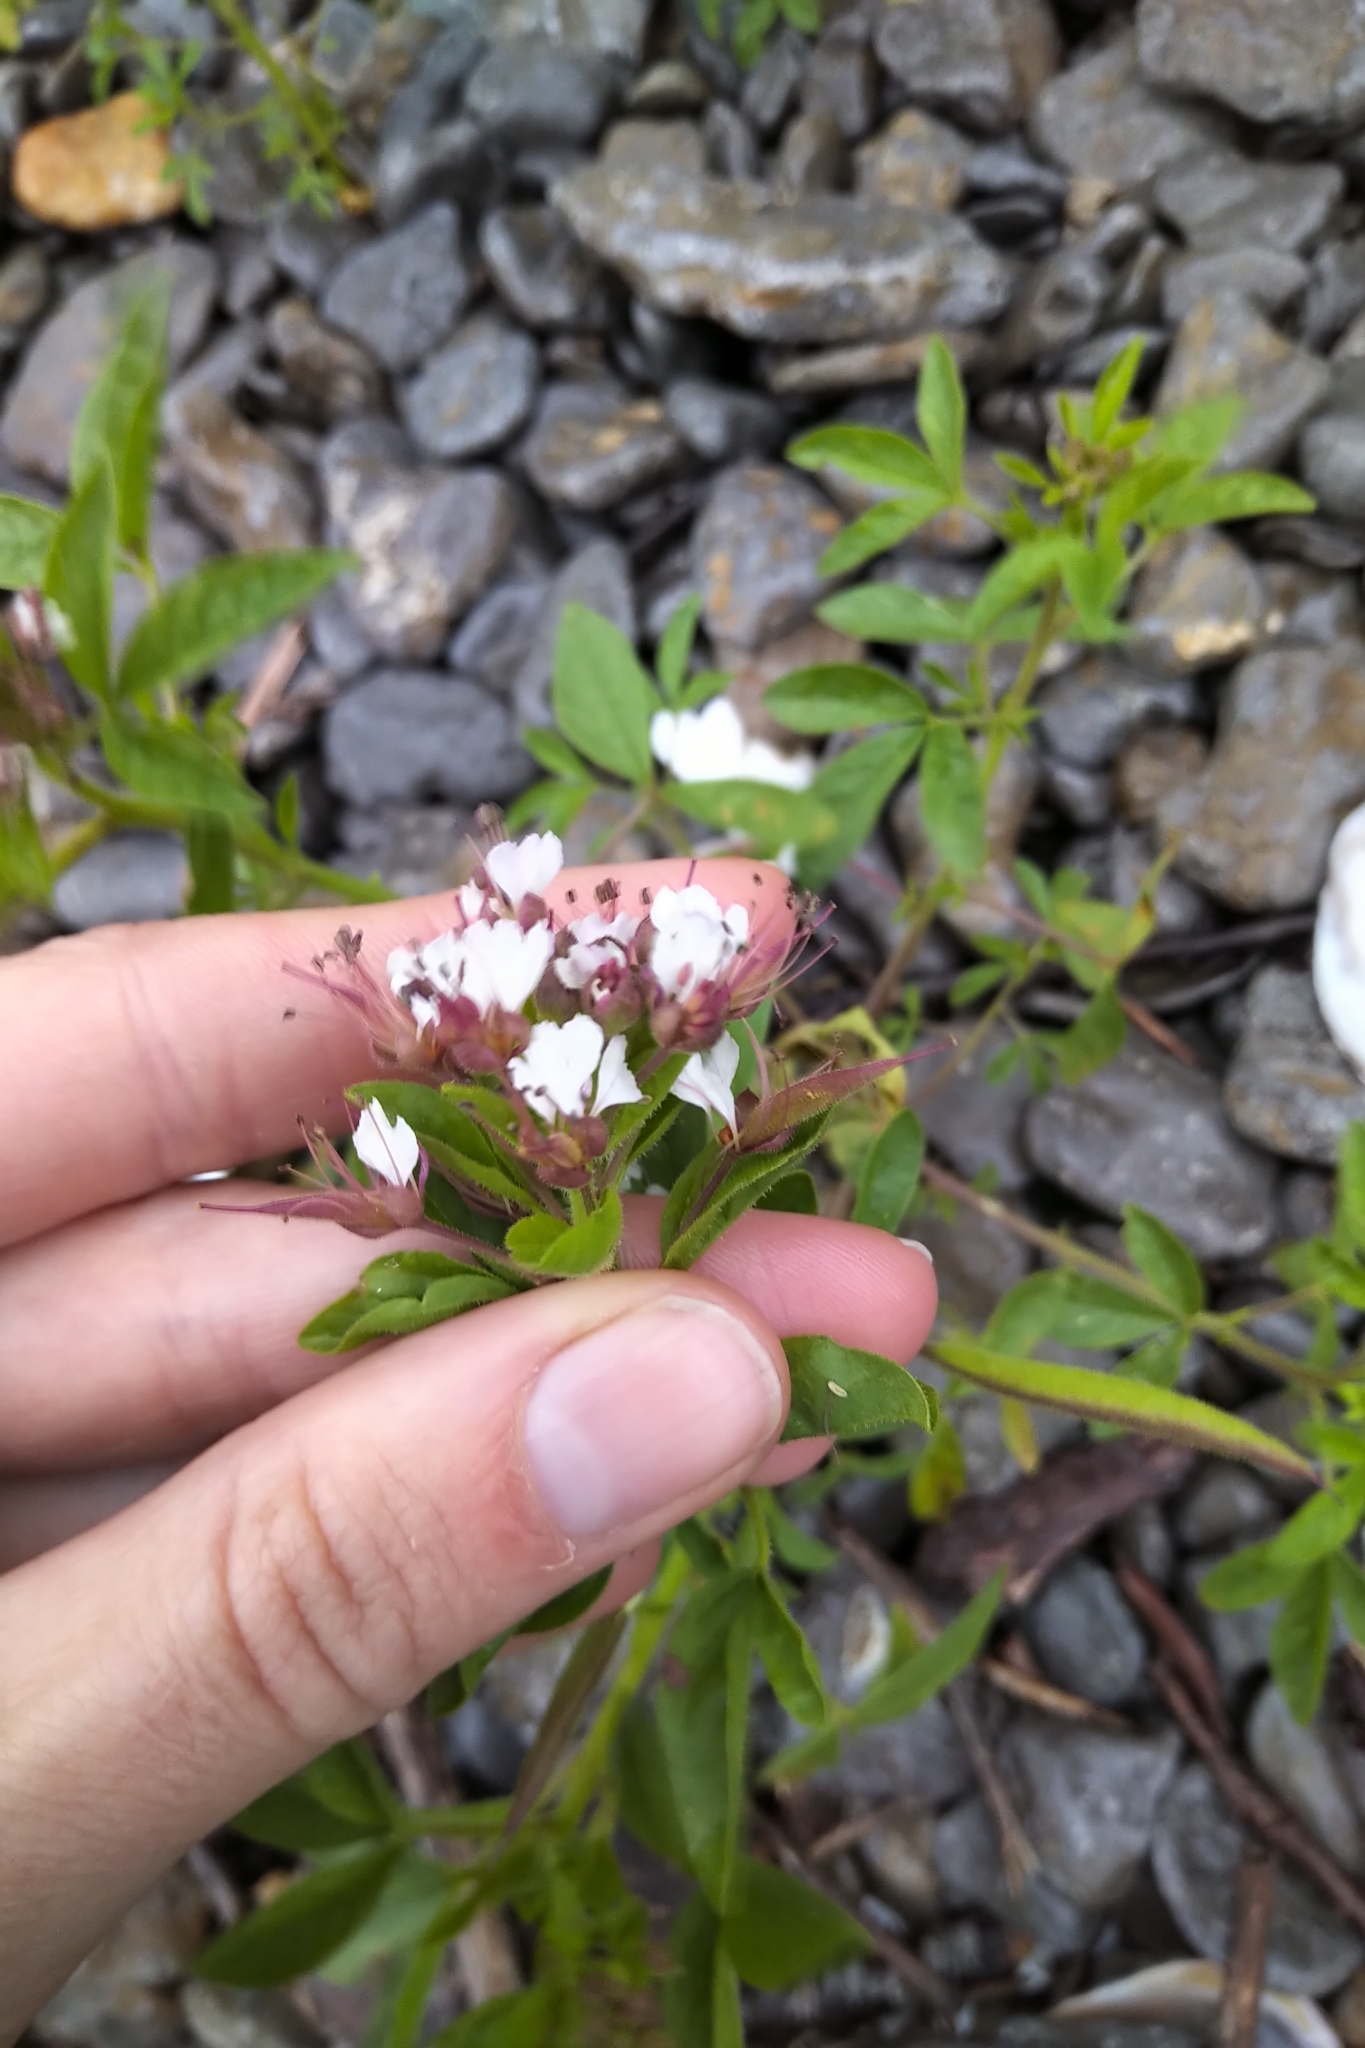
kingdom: Plantae
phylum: Tracheophyta
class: Magnoliopsida
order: Brassicales
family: Cleomaceae
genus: Polanisia
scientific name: Polanisia dodecandra
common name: Clammyweed
